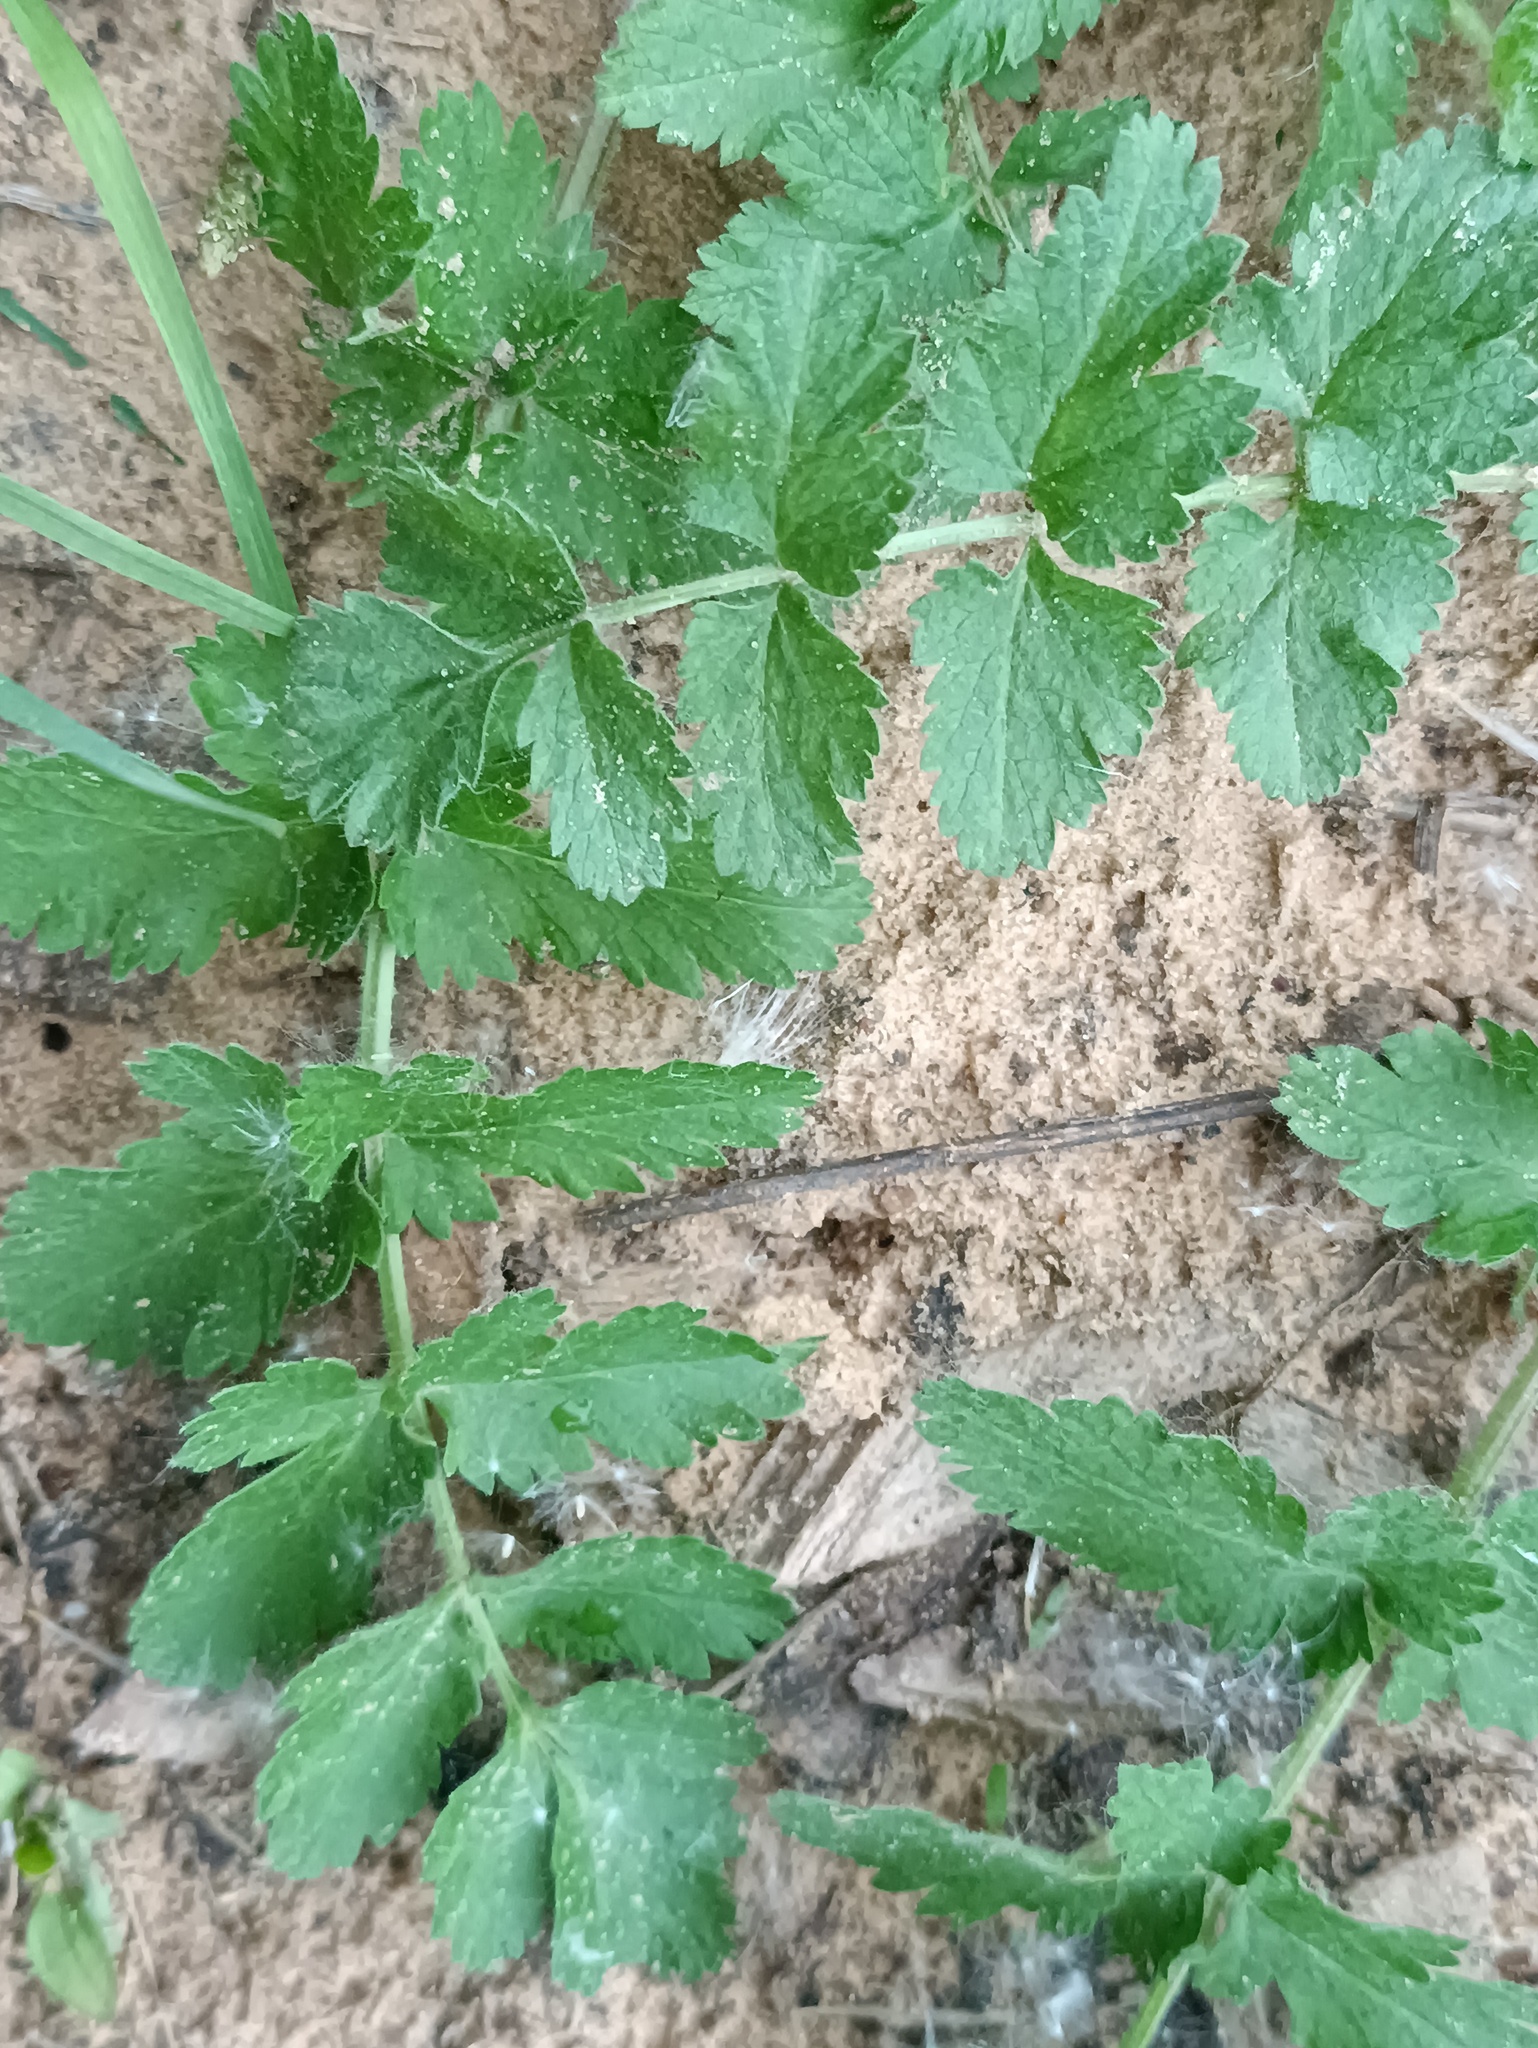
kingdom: Plantae
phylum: Tracheophyta
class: Magnoliopsida
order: Apiales
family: Apiaceae
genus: Pimpinella
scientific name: Pimpinella saxifraga
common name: Burnet-saxifrage
